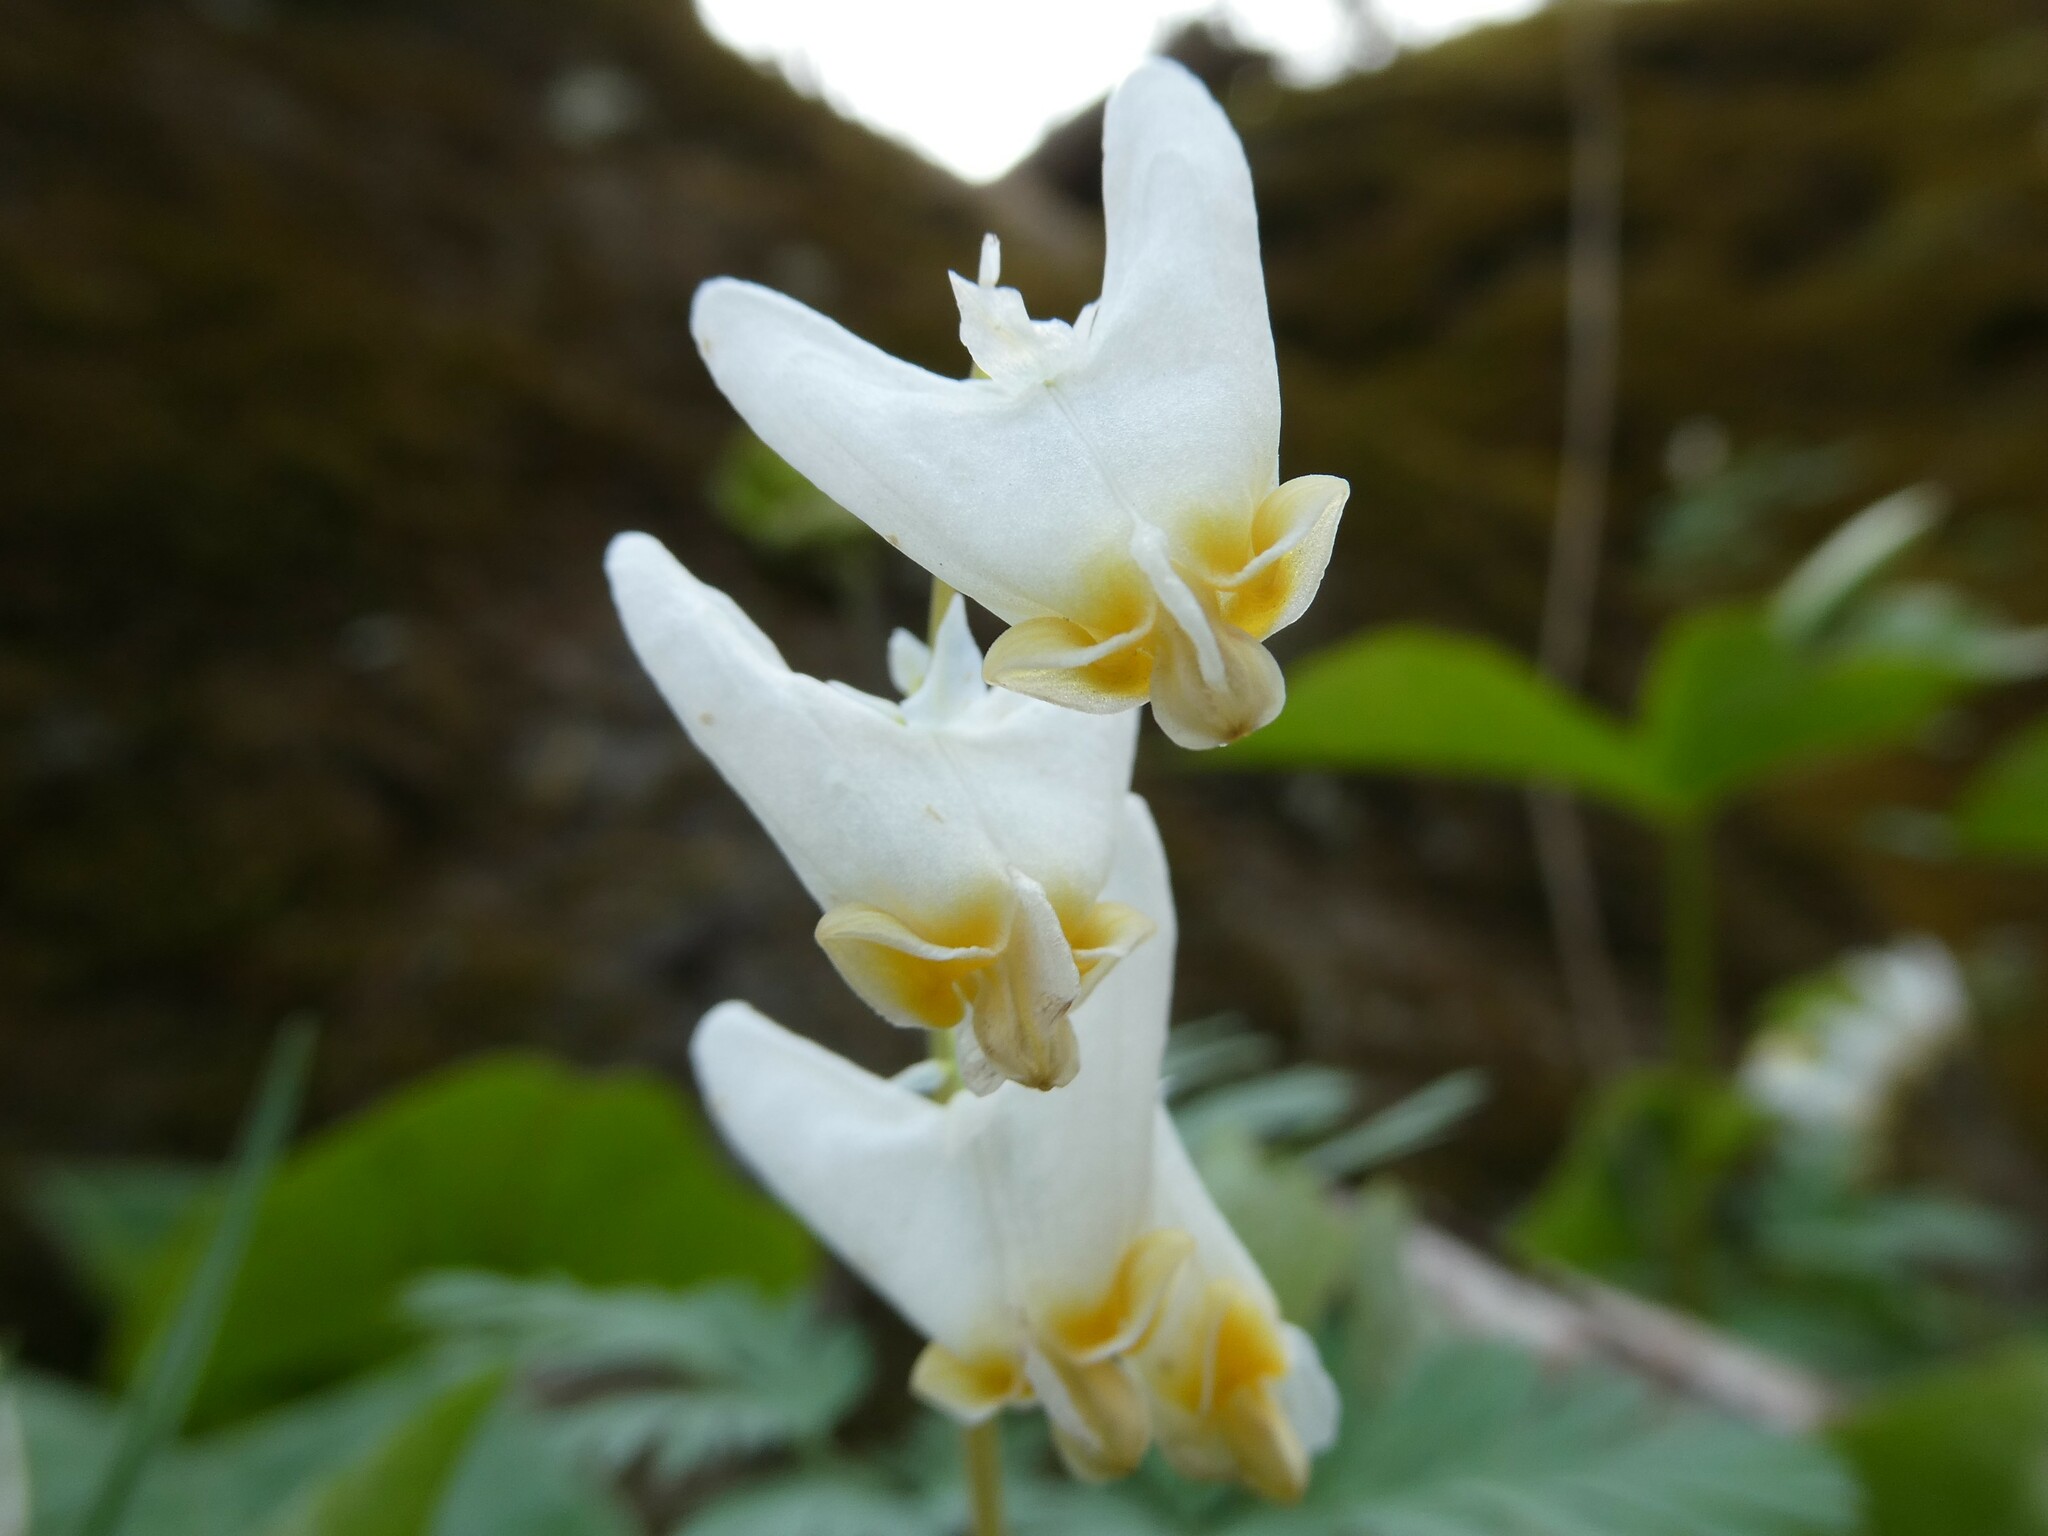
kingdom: Plantae
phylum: Tracheophyta
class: Magnoliopsida
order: Ranunculales
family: Papaveraceae
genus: Dicentra
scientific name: Dicentra cucullaria
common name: Dutchman's breeches
